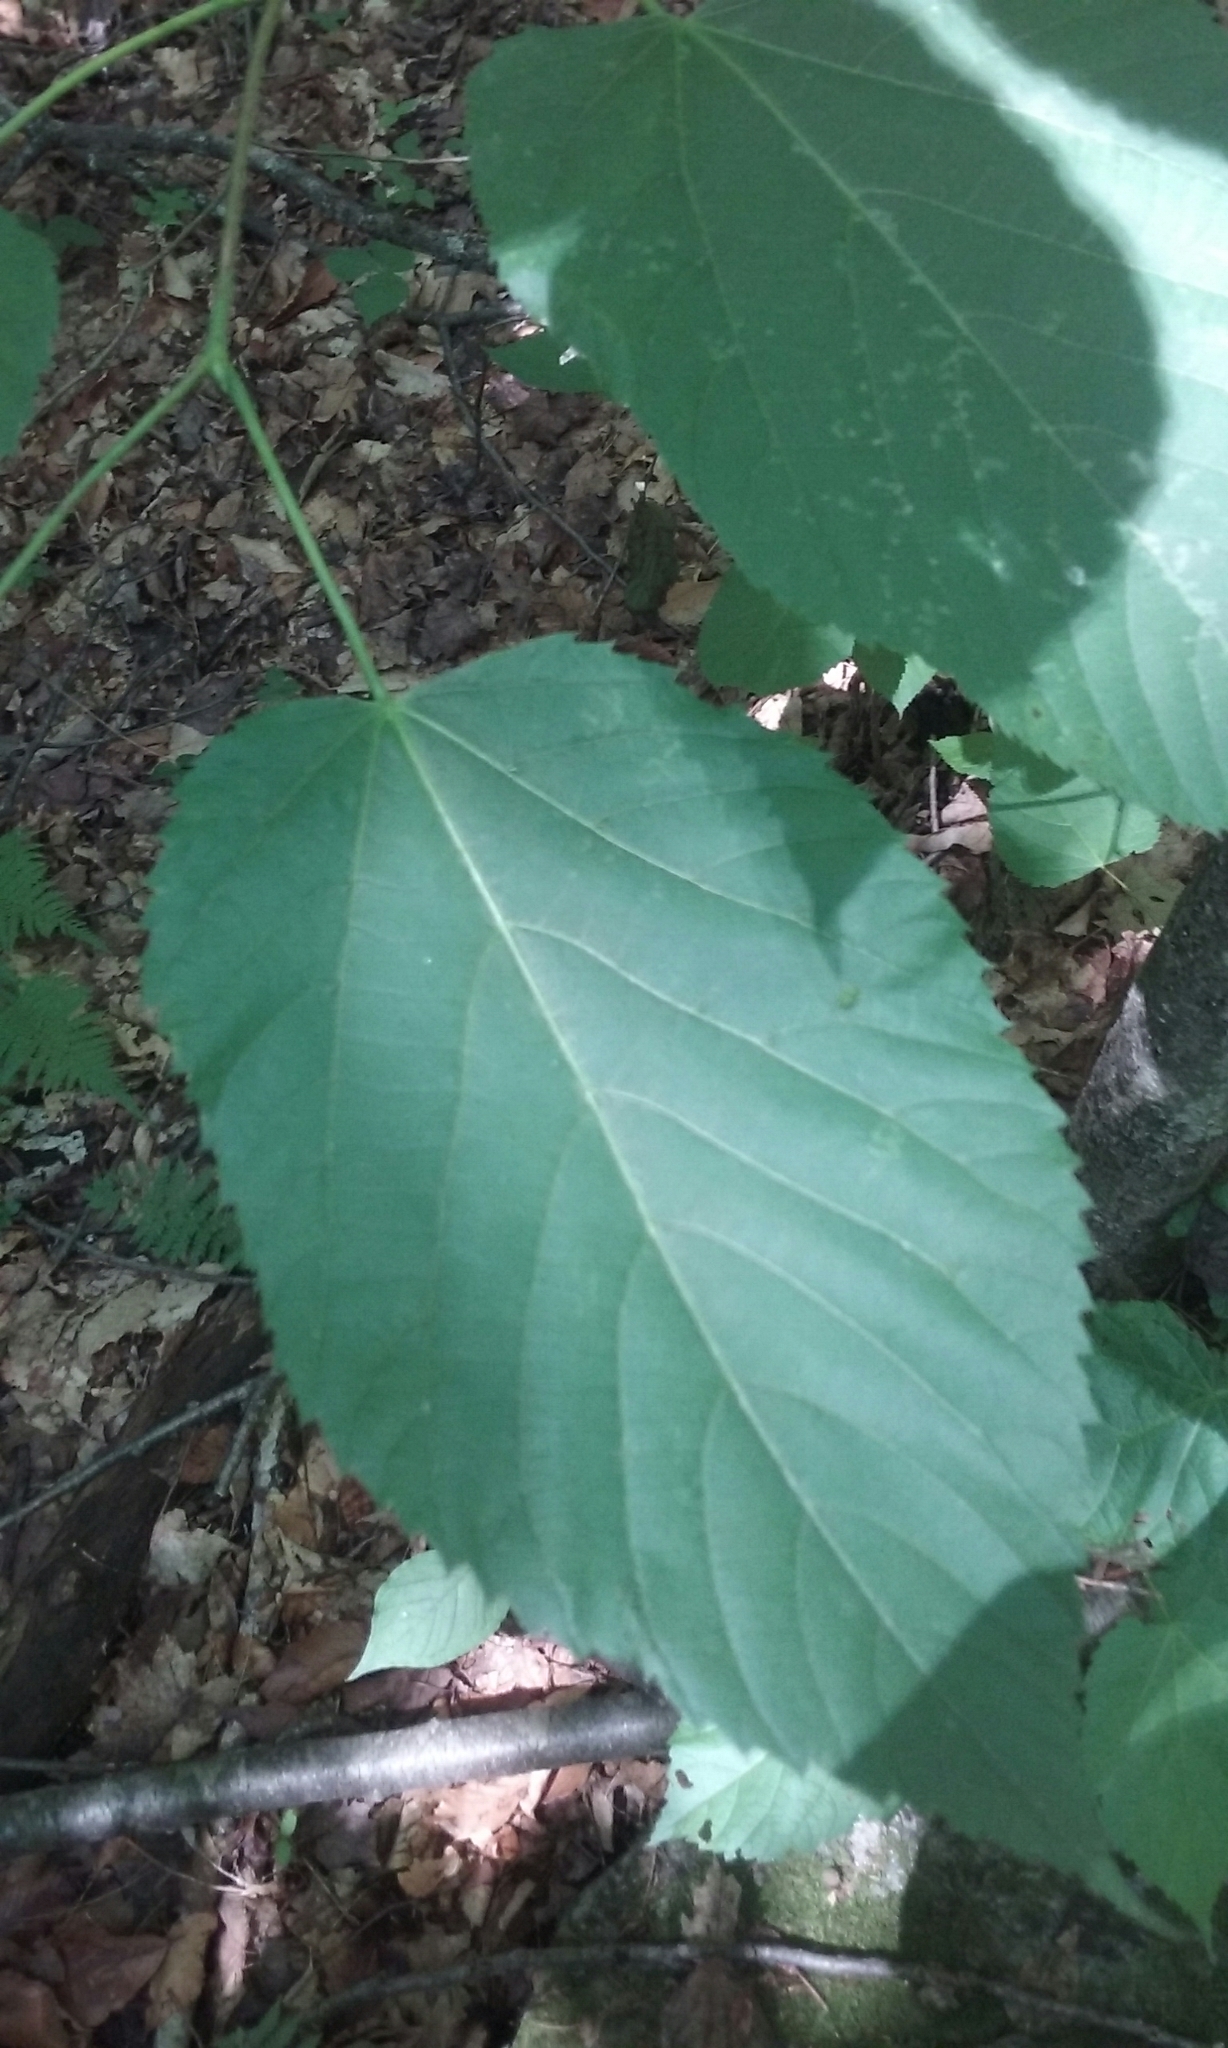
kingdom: Plantae
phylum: Tracheophyta
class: Magnoliopsida
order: Malvales
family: Malvaceae
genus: Tilia
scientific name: Tilia americana
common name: Basswood
